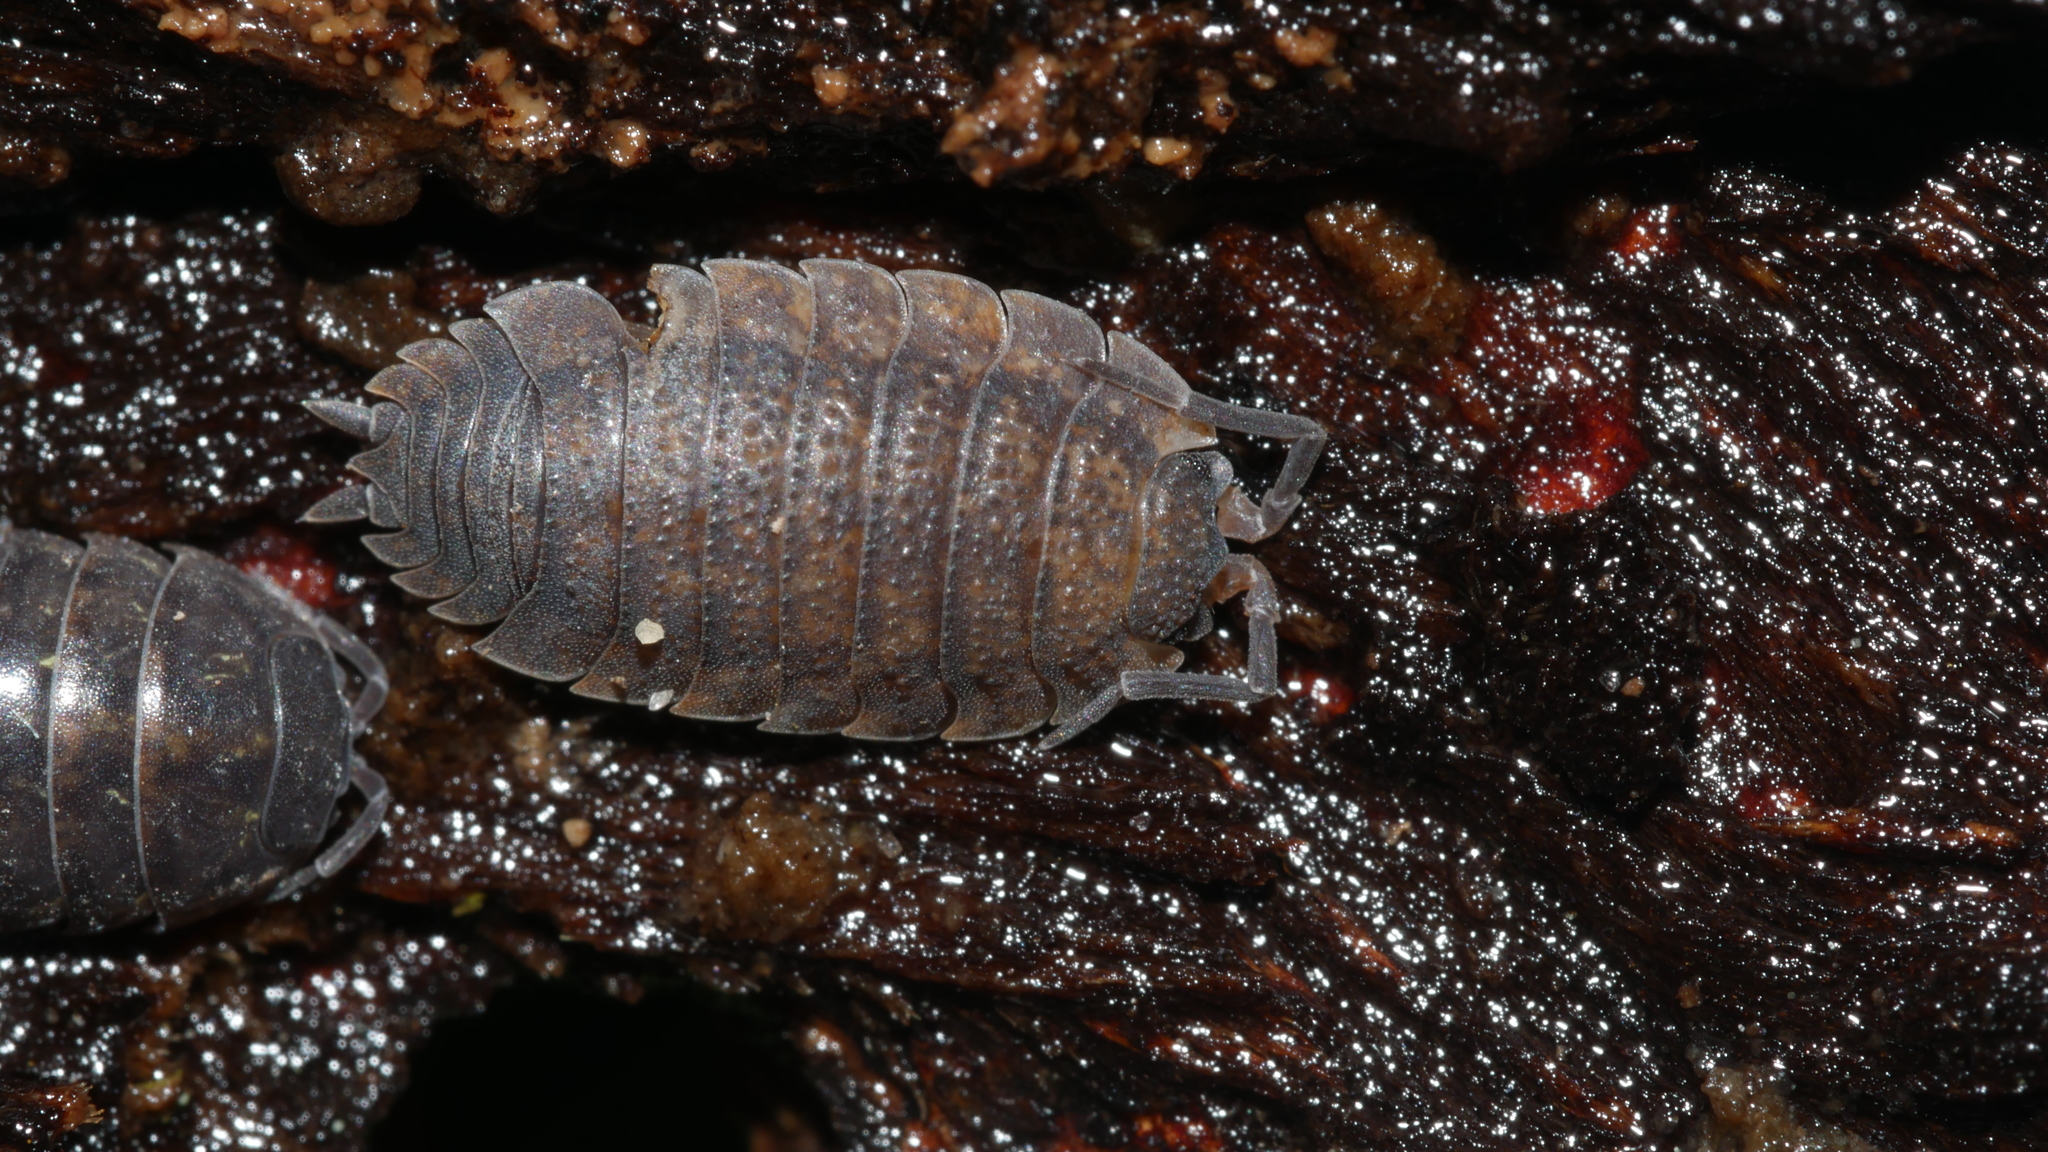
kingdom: Animalia
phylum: Arthropoda
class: Malacostraca
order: Isopoda
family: Porcellionidae
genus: Porcellio
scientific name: Porcellio scaber
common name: Common rough woodlouse
